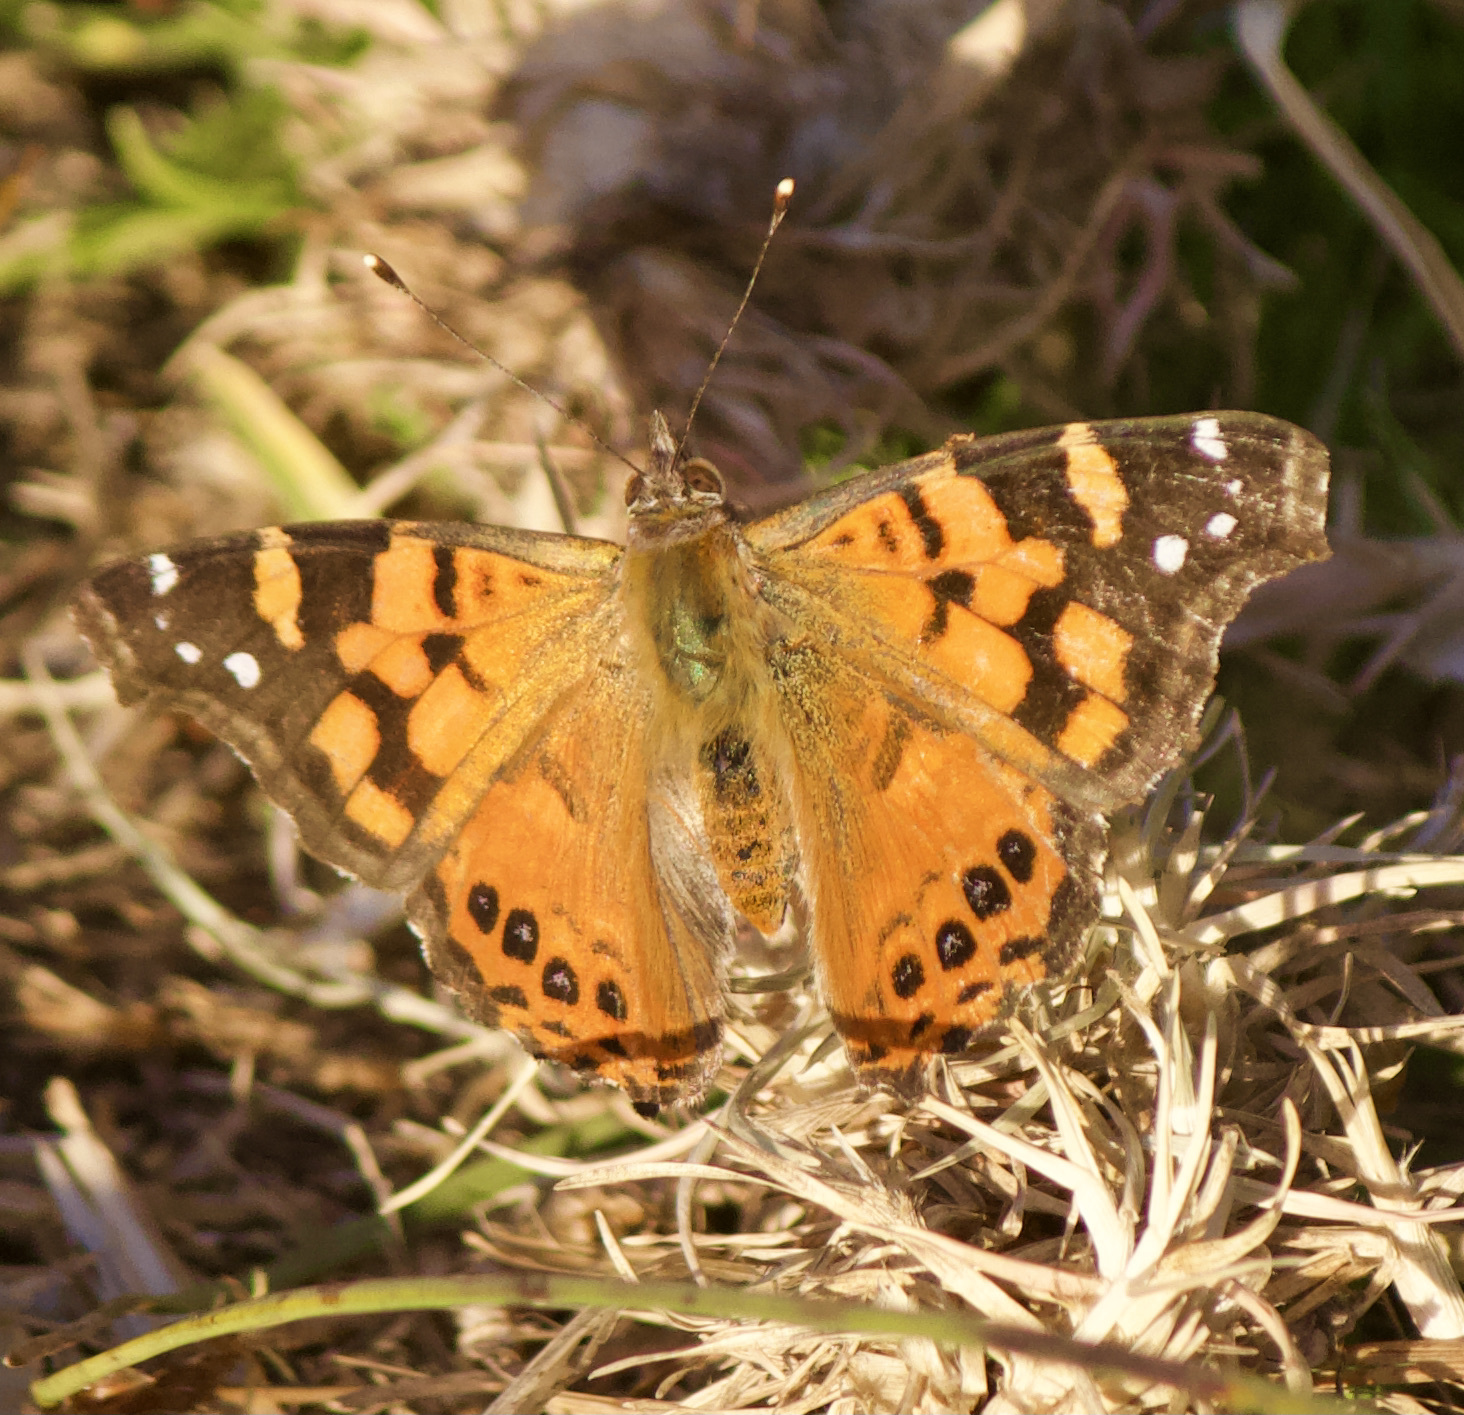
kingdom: Animalia
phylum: Arthropoda
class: Insecta
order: Lepidoptera
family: Nymphalidae
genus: Vanessa
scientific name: Vanessa carye
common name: Subtropical lady
